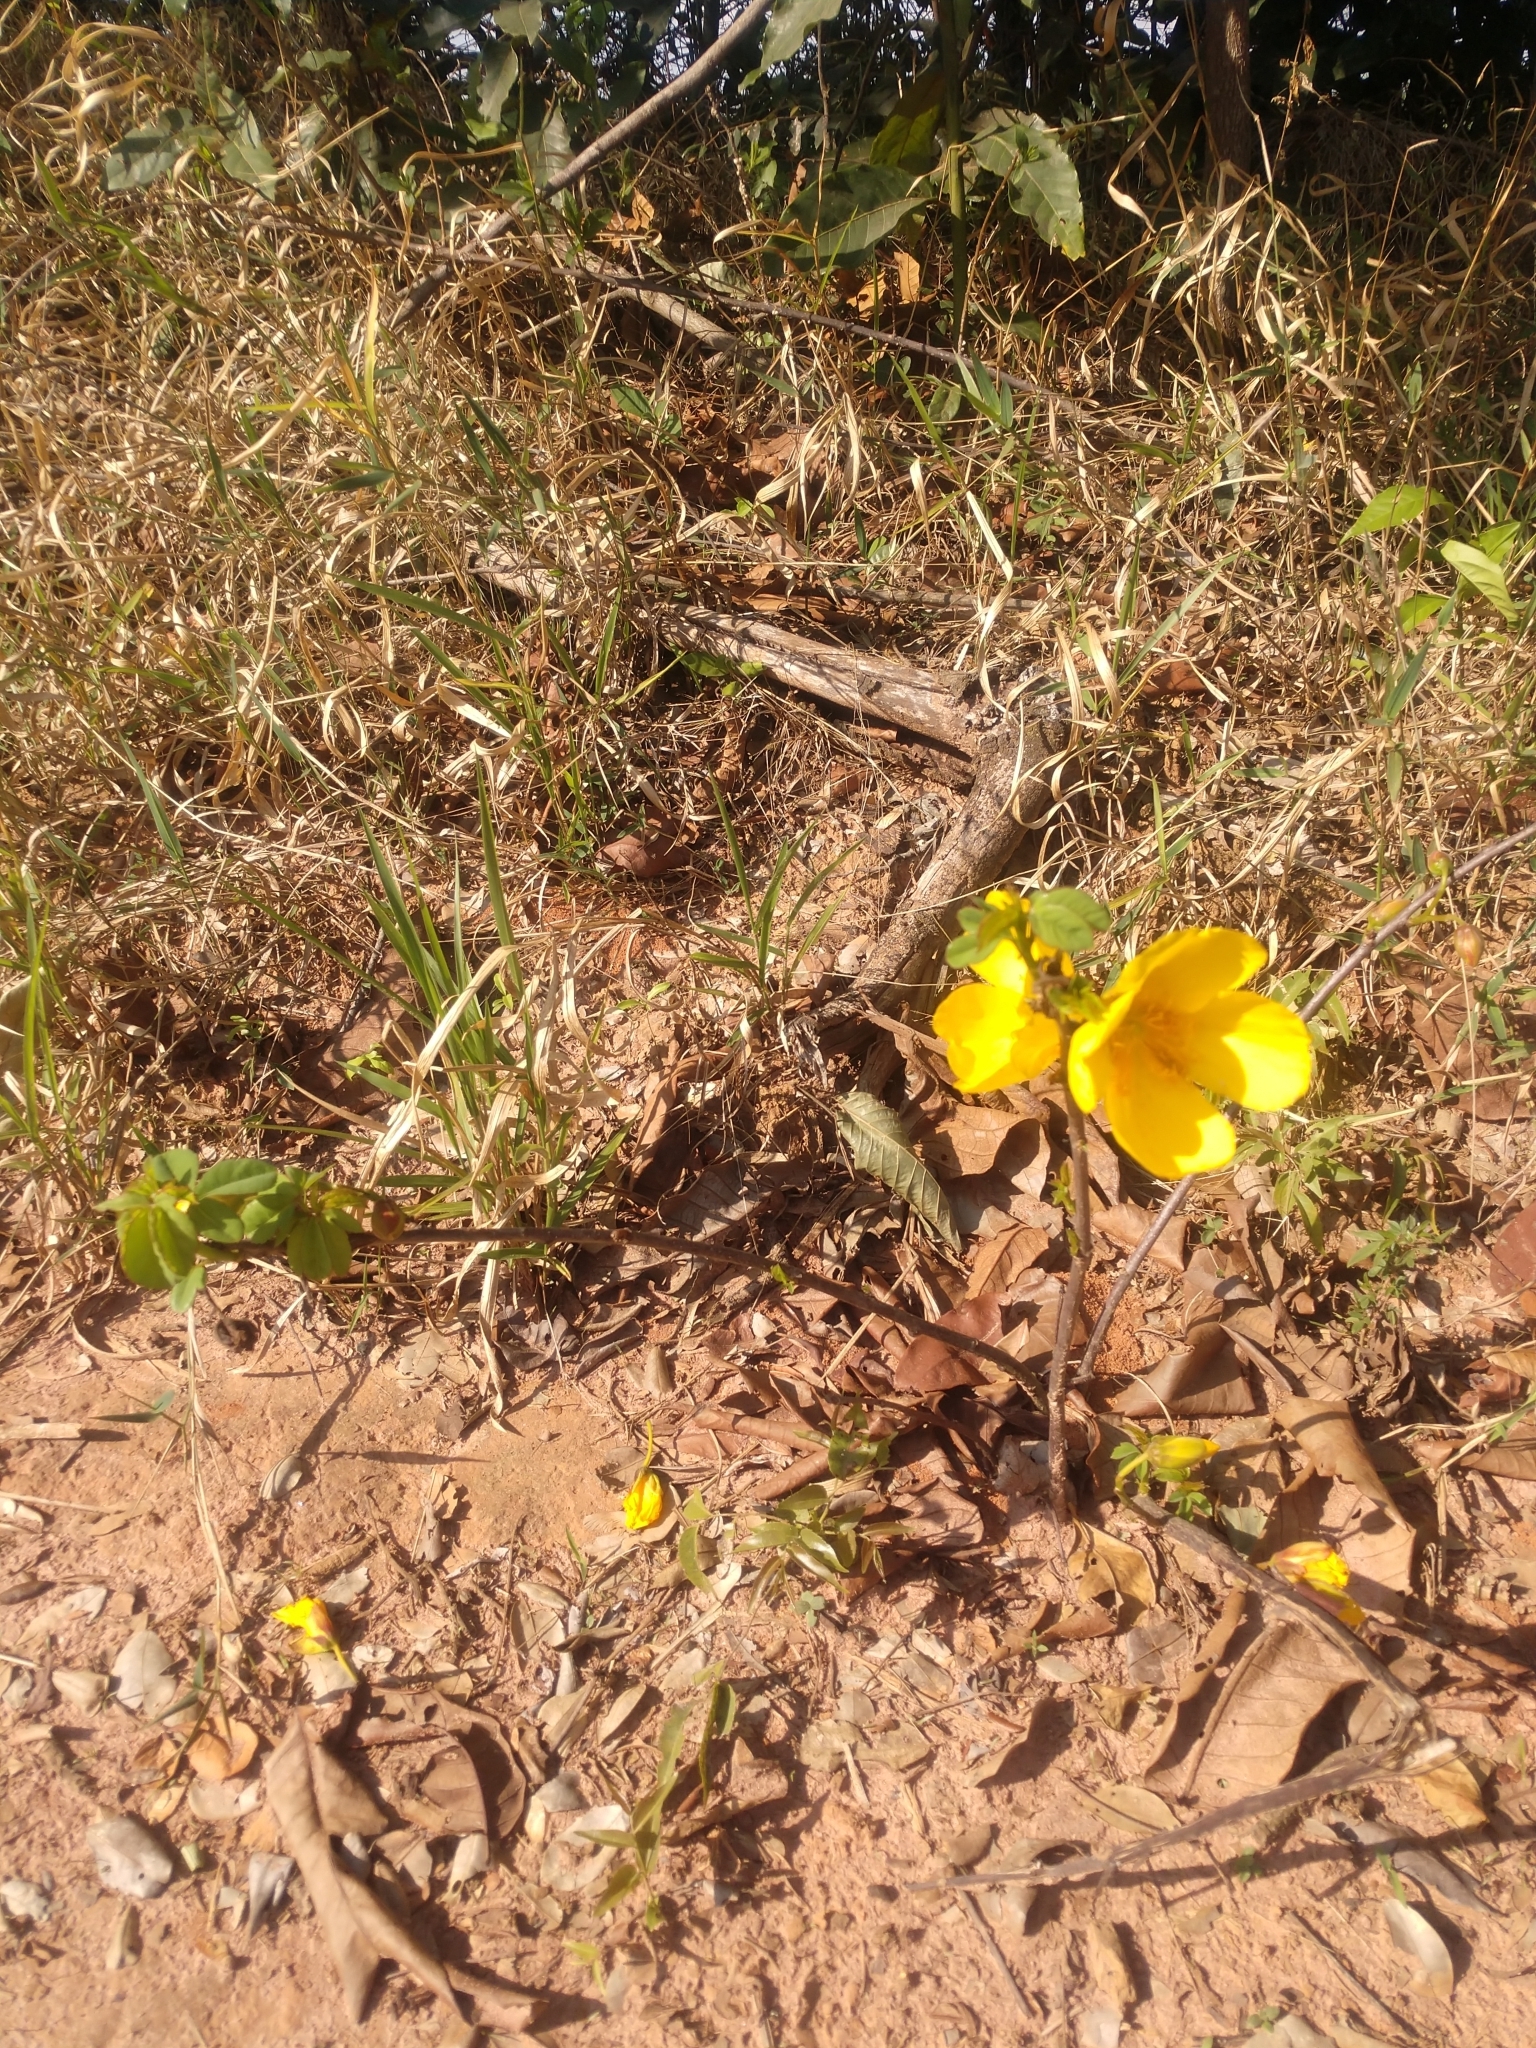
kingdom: Plantae
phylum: Tracheophyta
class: Magnoliopsida
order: Malvales
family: Cochlospermaceae
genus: Cochlospermum
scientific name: Cochlospermum regium
